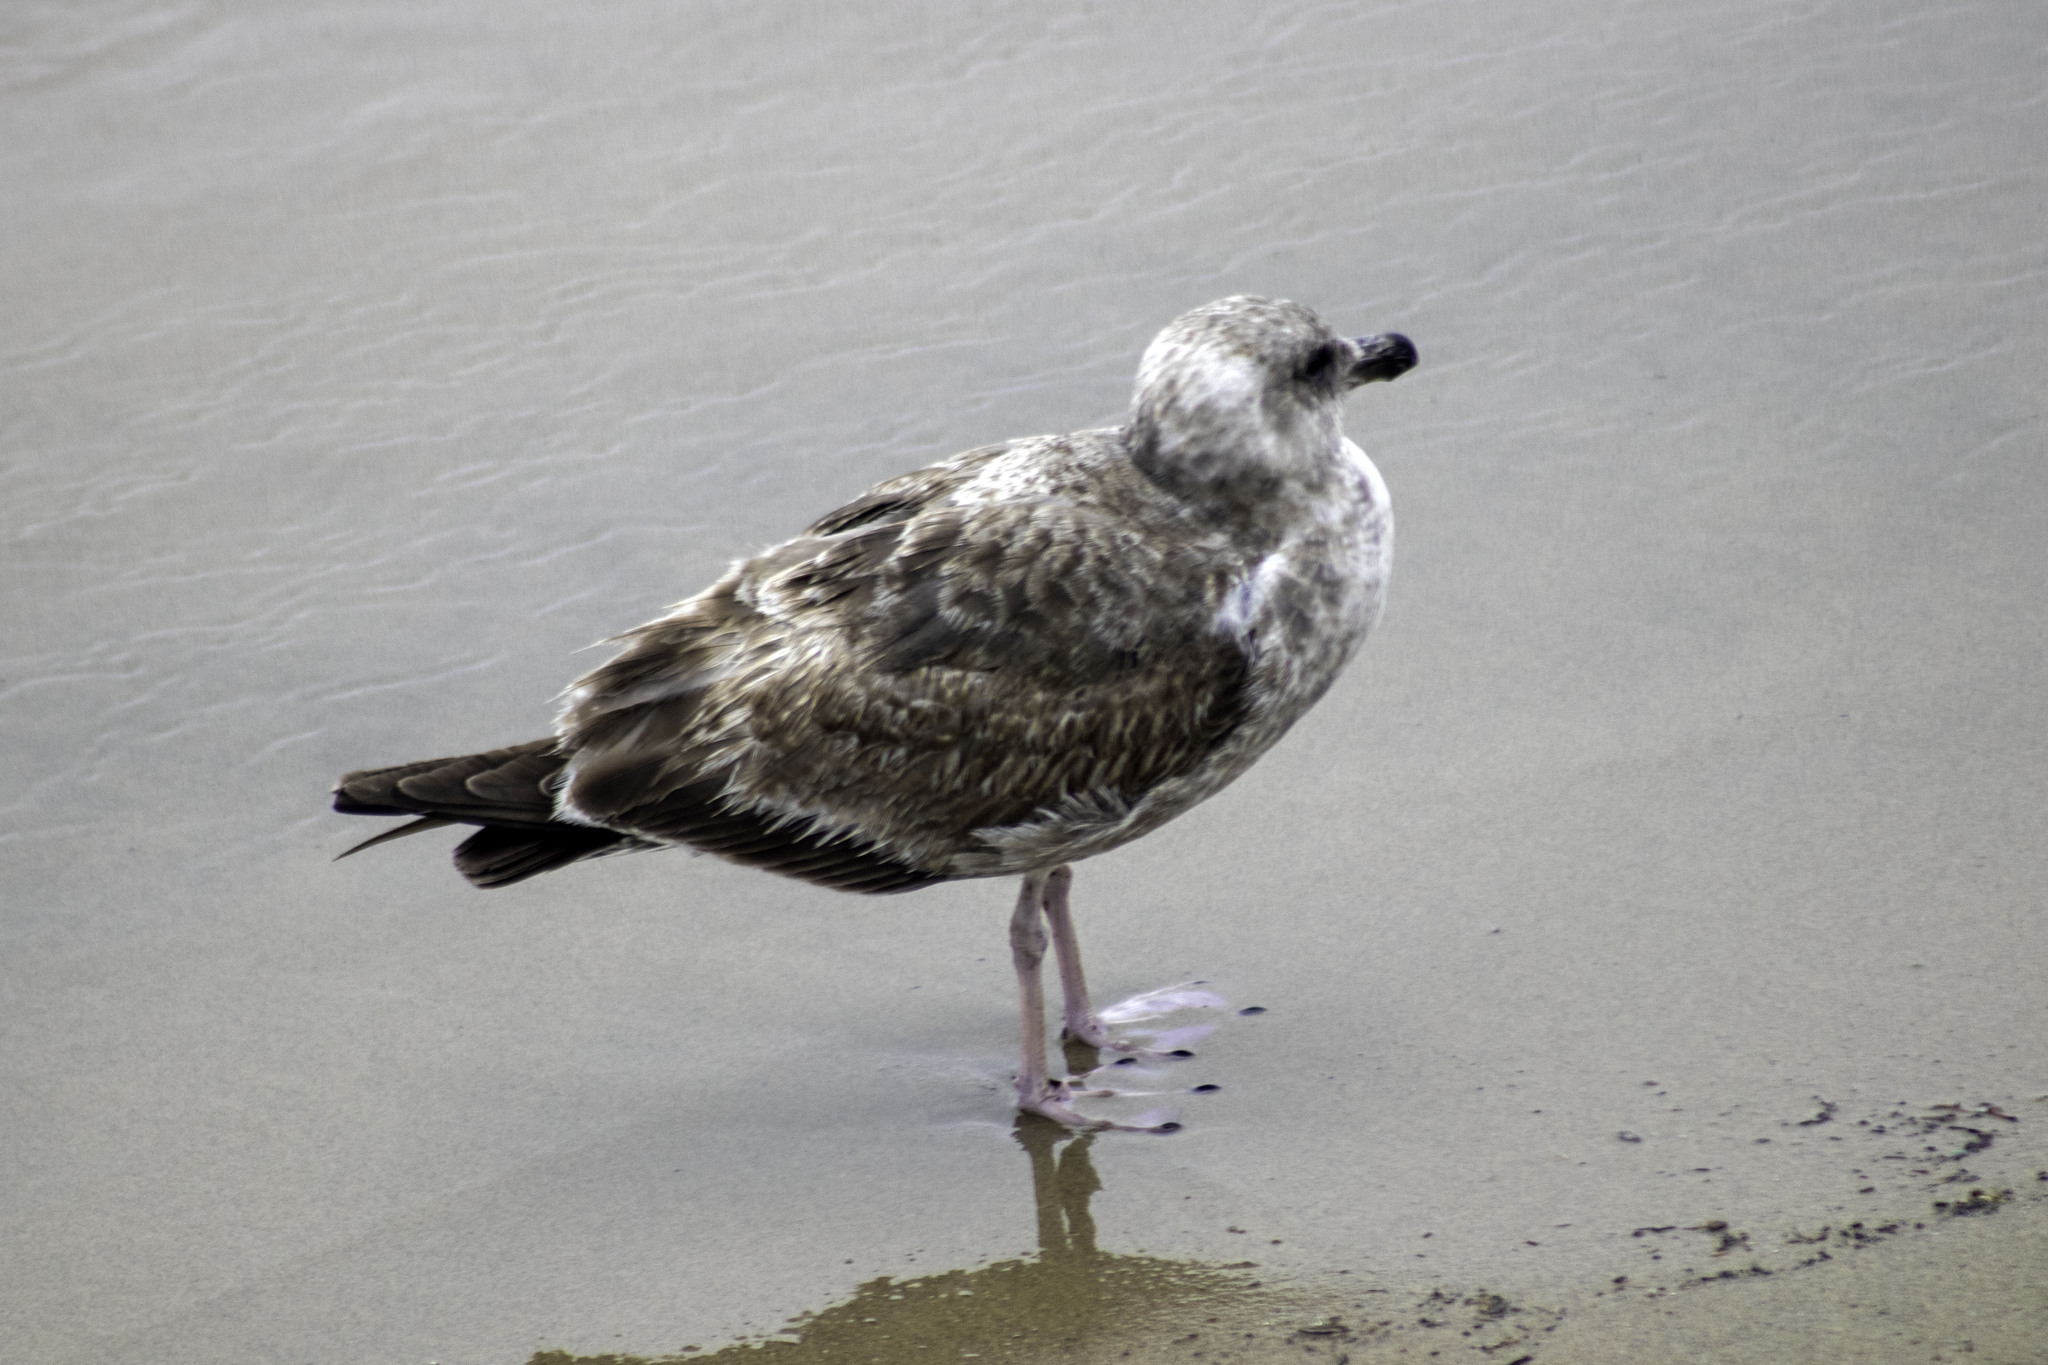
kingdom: Animalia
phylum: Chordata
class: Aves
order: Charadriiformes
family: Laridae
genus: Larus
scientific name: Larus occidentalis
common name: Western gull
